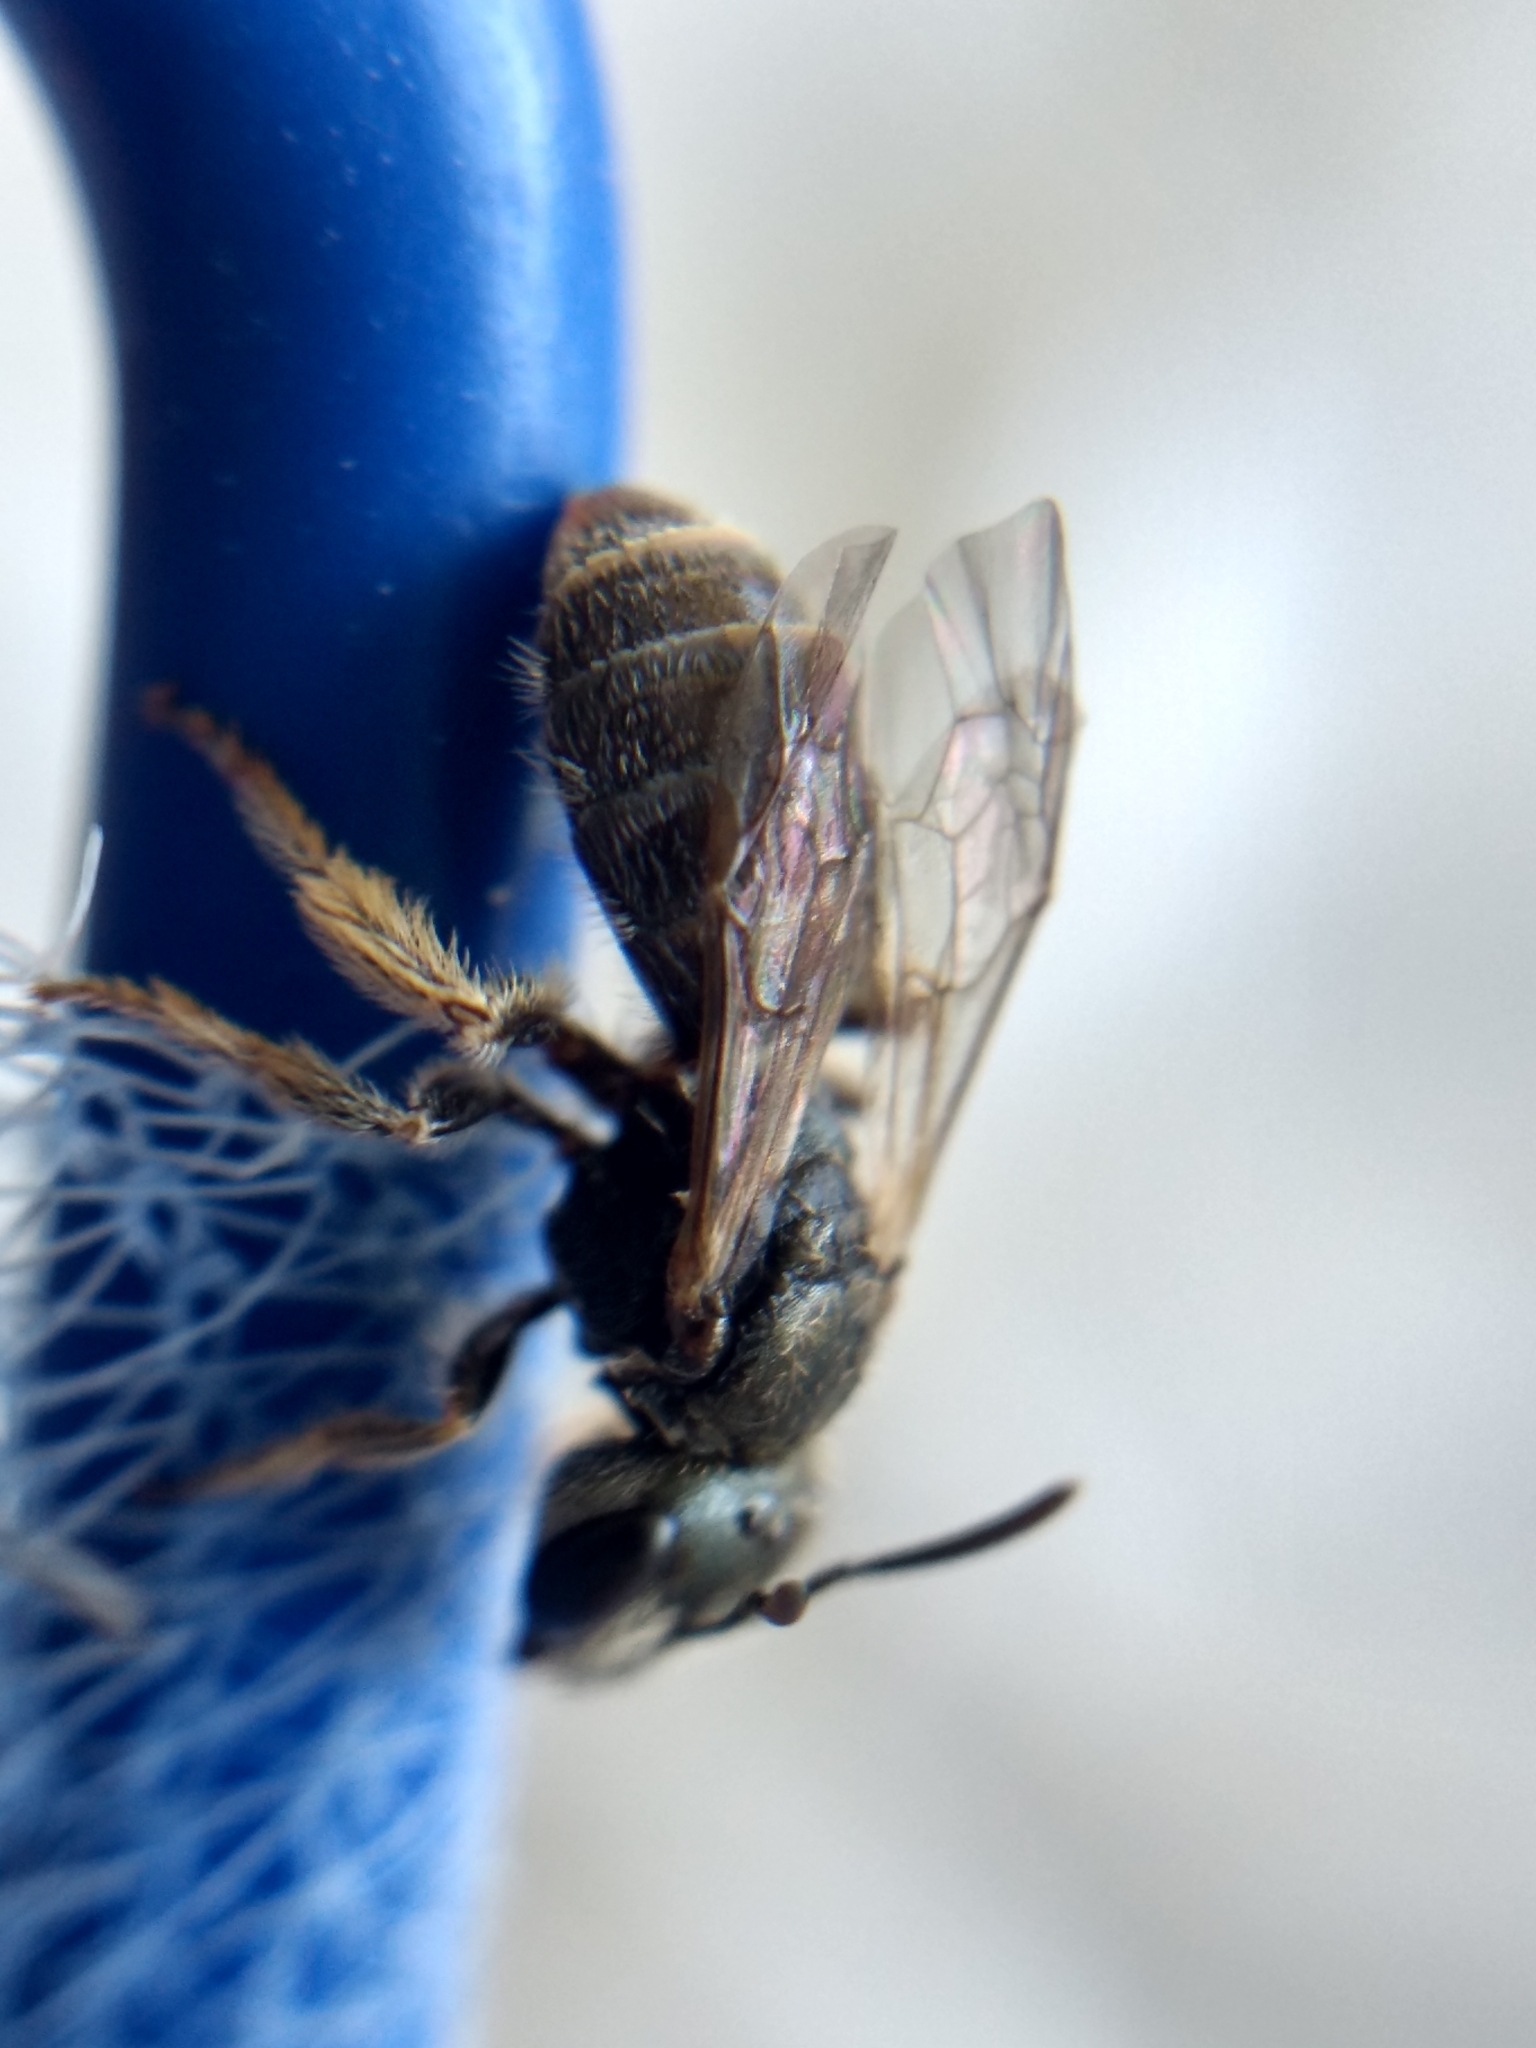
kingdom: Animalia
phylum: Arthropoda
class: Insecta
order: Hymenoptera
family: Halictidae
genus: Halictus
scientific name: Halictus tripartitus
